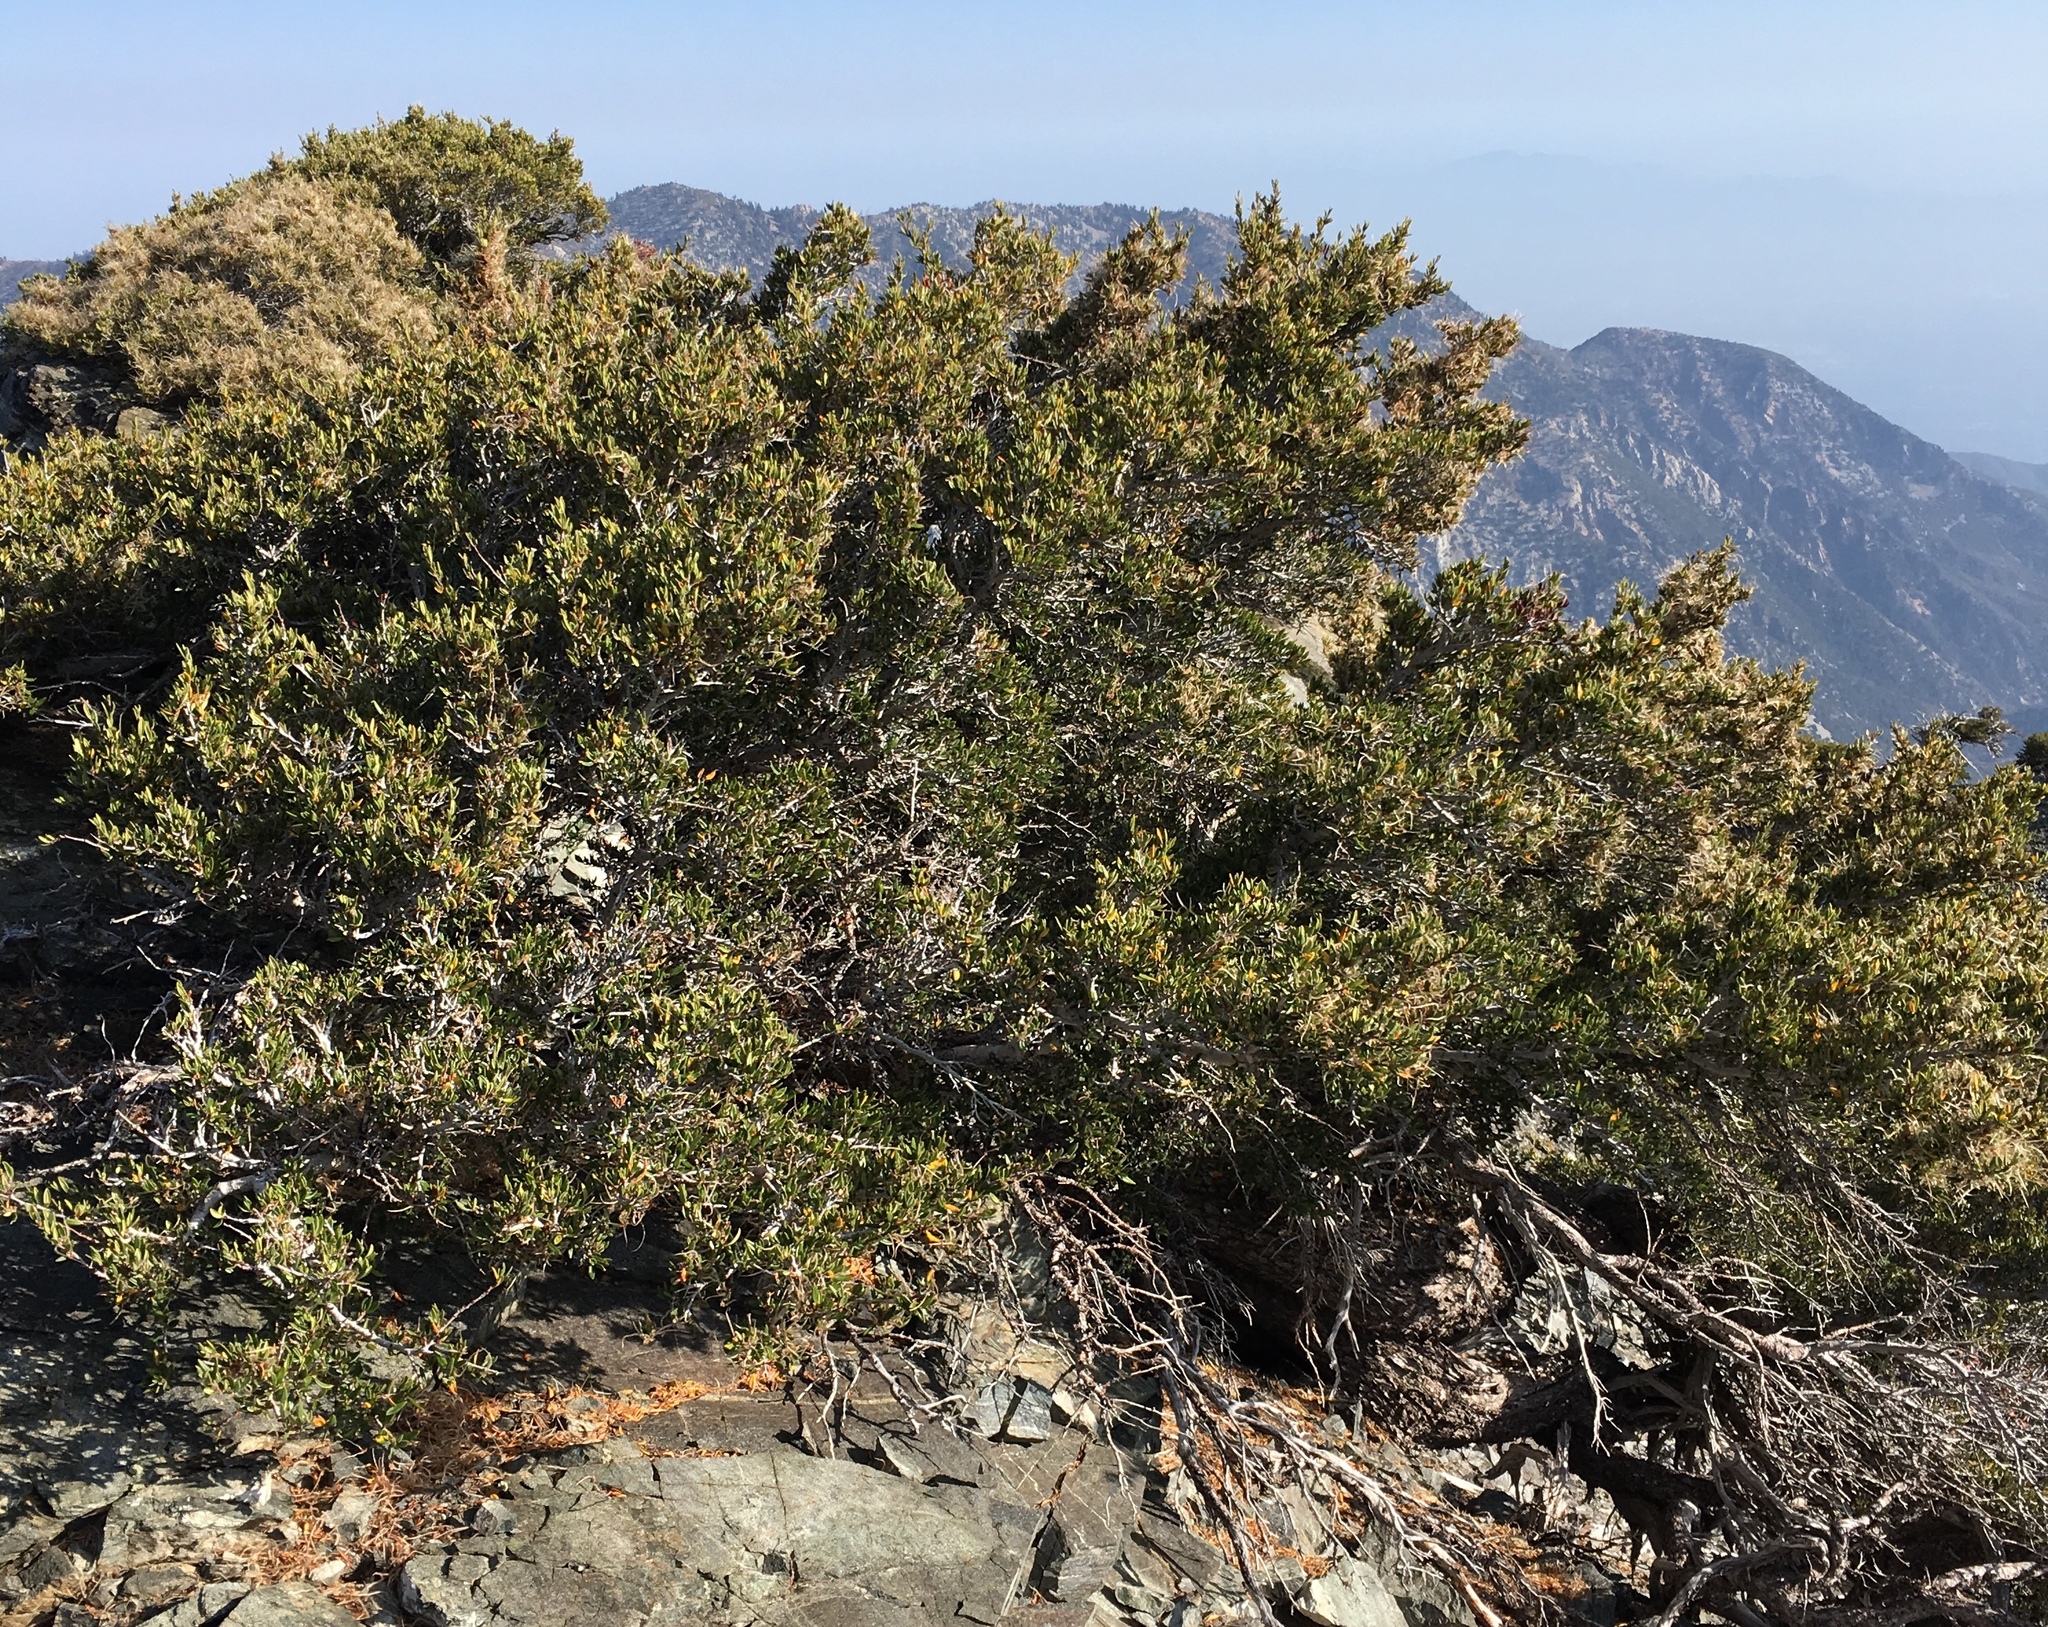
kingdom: Plantae
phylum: Tracheophyta
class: Magnoliopsida
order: Rosales
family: Rosaceae
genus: Cercocarpus
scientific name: Cercocarpus
